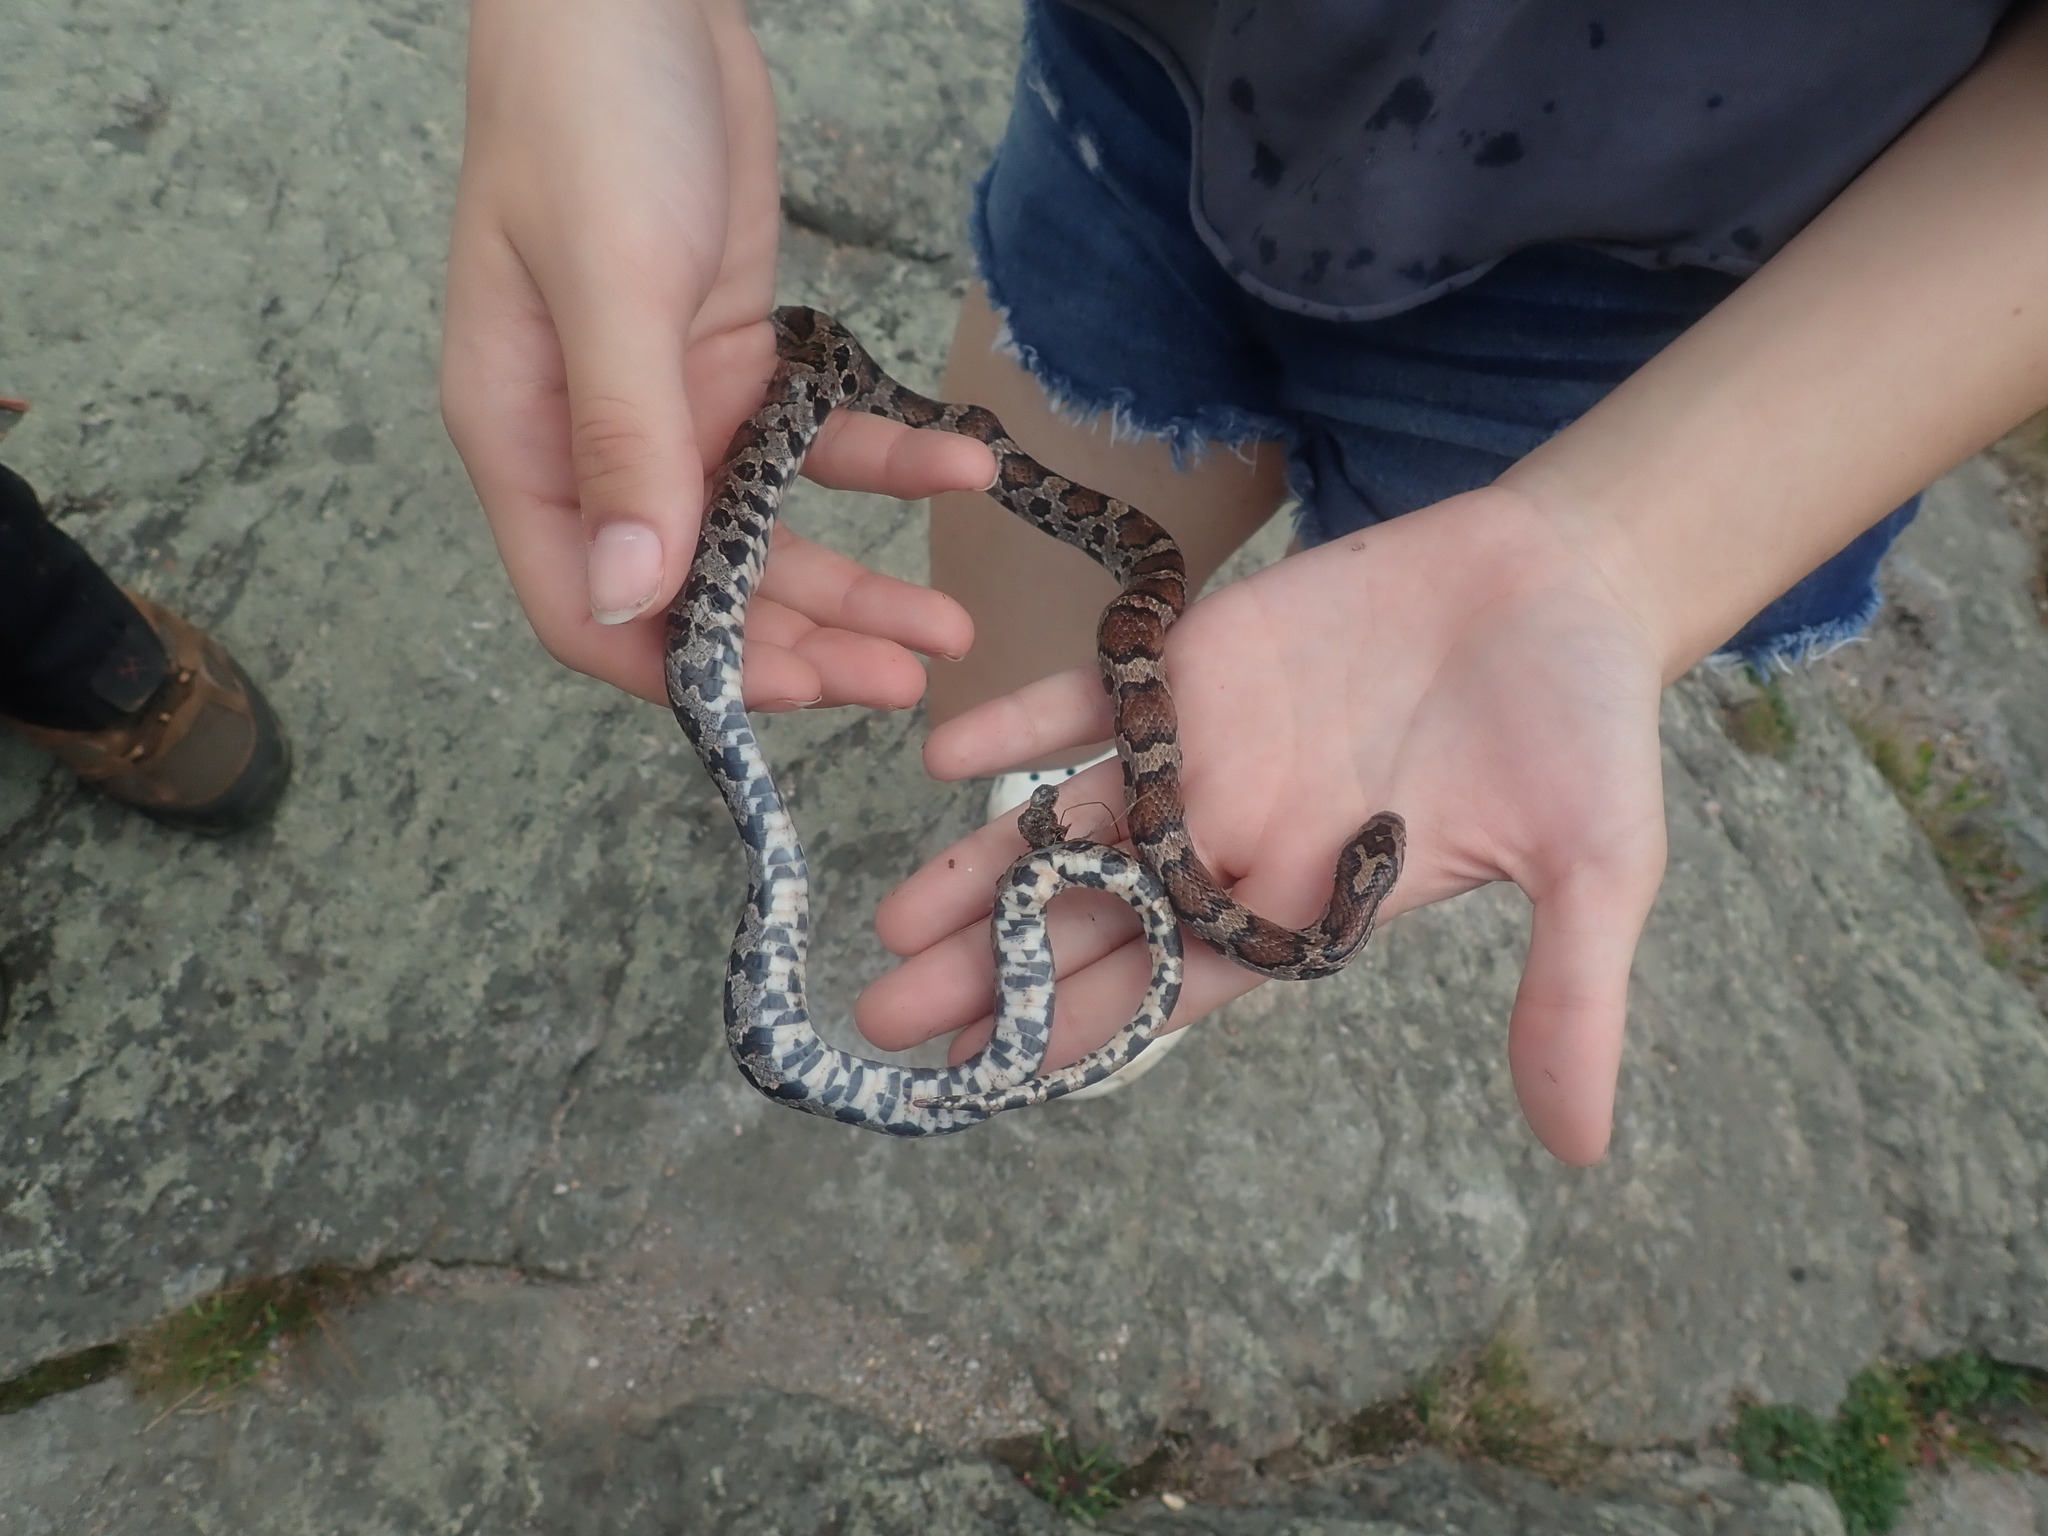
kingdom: Animalia
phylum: Chordata
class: Squamata
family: Colubridae
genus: Lampropeltis
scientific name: Lampropeltis triangulum
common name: Eastern milksnake
